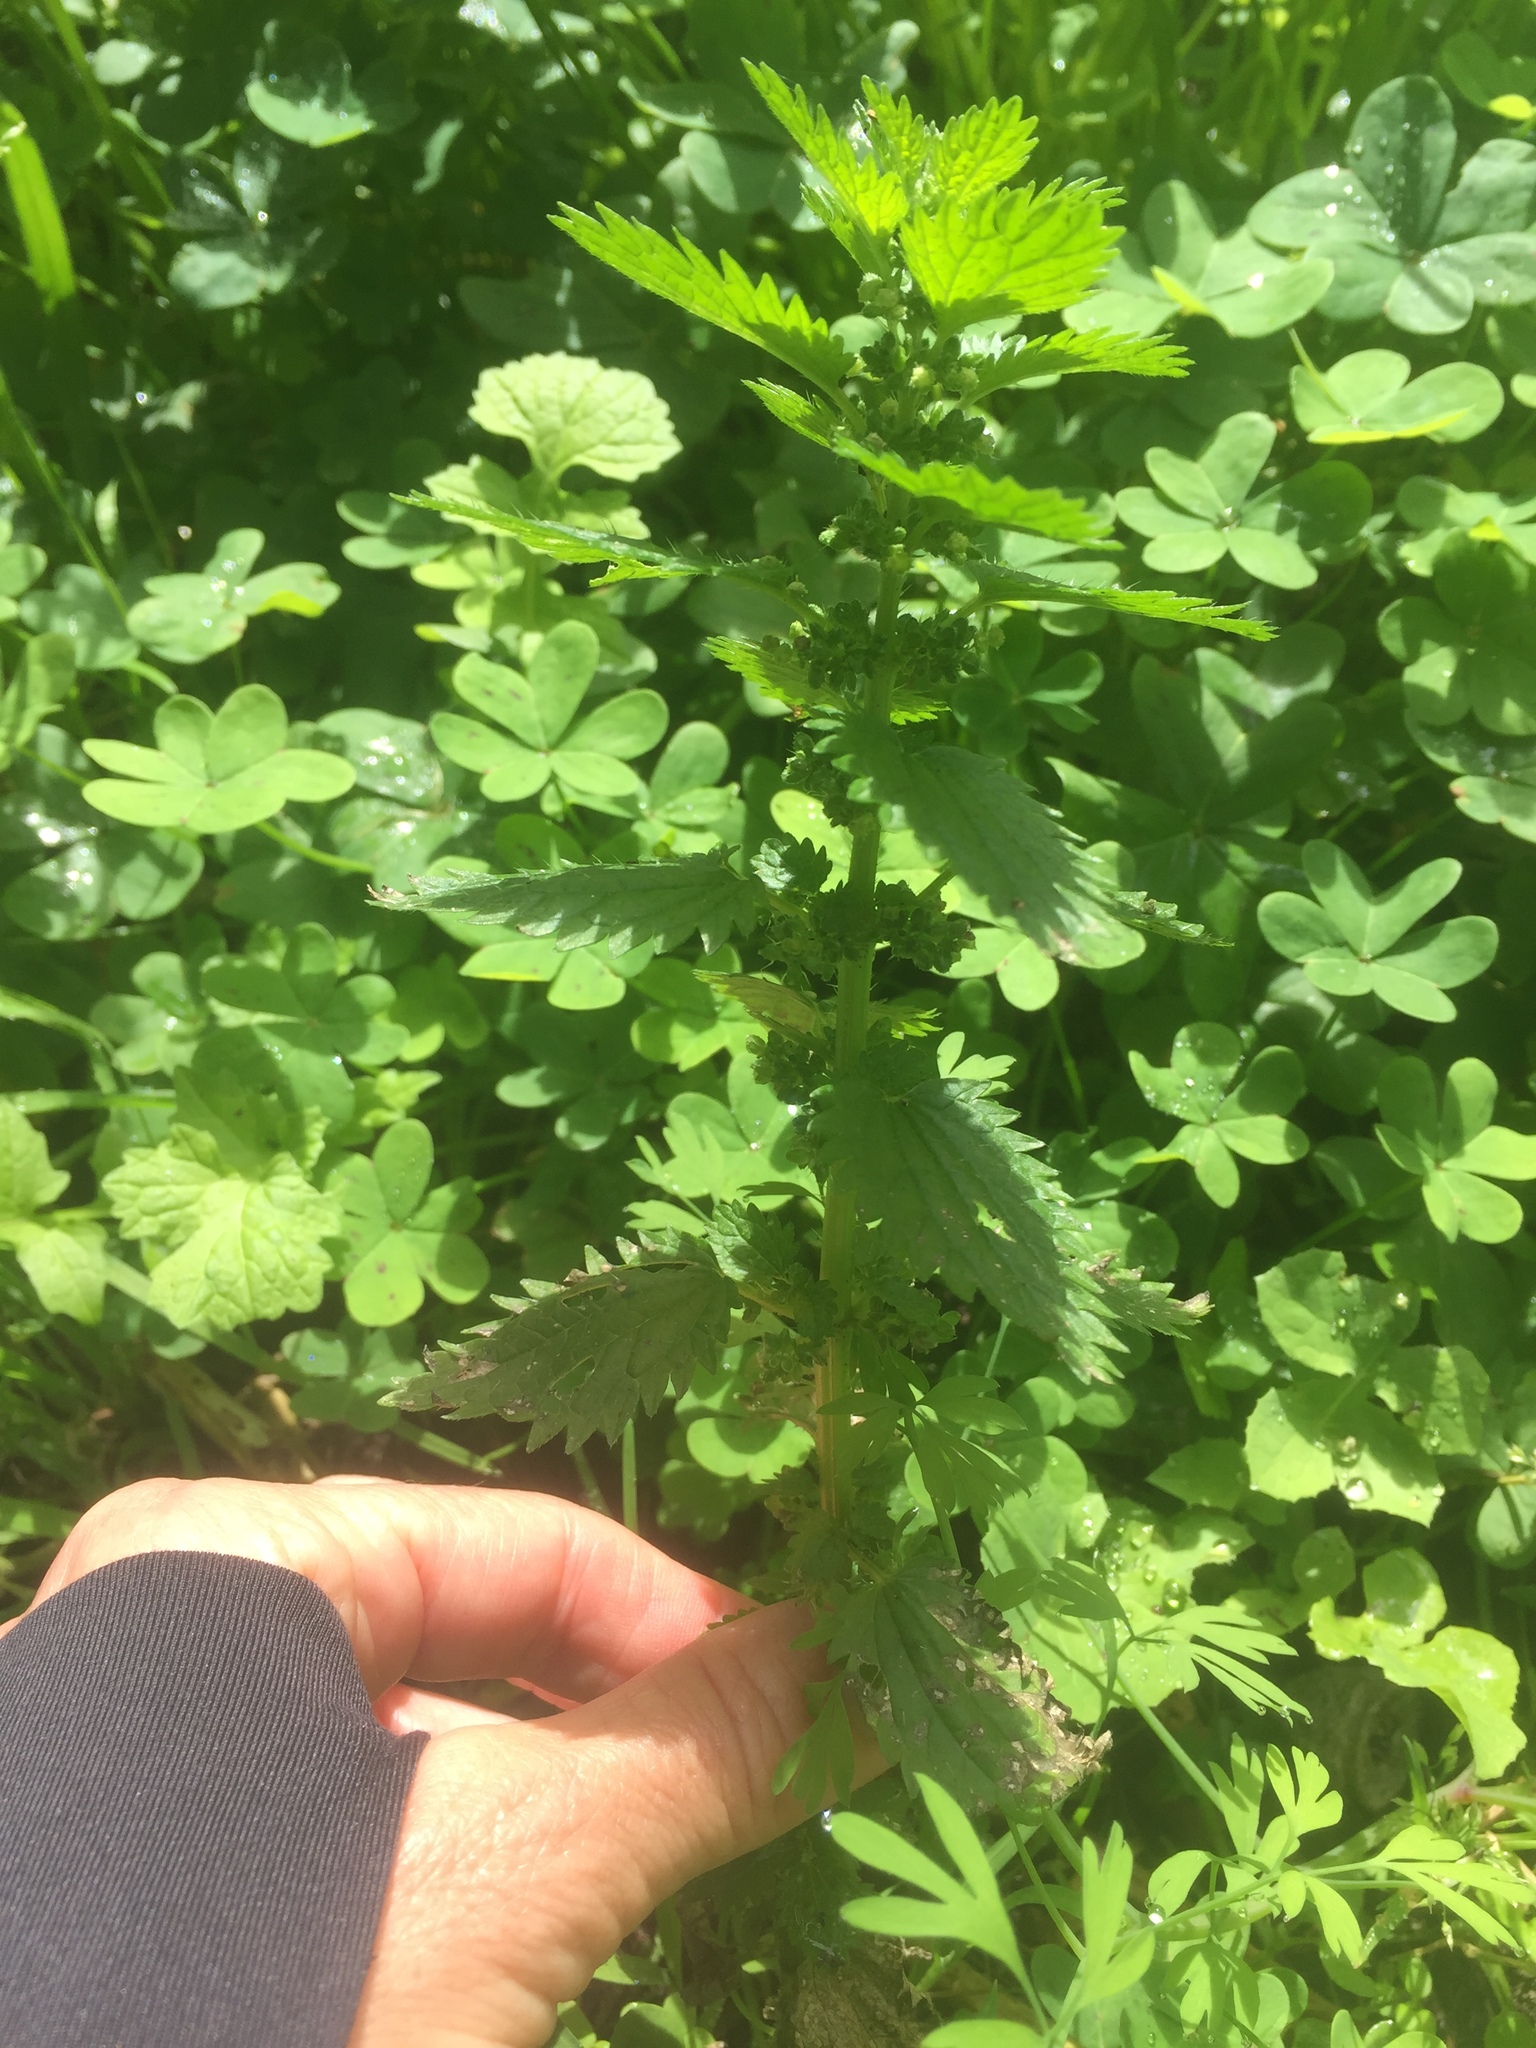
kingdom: Plantae
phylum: Tracheophyta
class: Magnoliopsida
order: Rosales
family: Urticaceae
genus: Urtica
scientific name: Urtica urens
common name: Dwarf nettle
